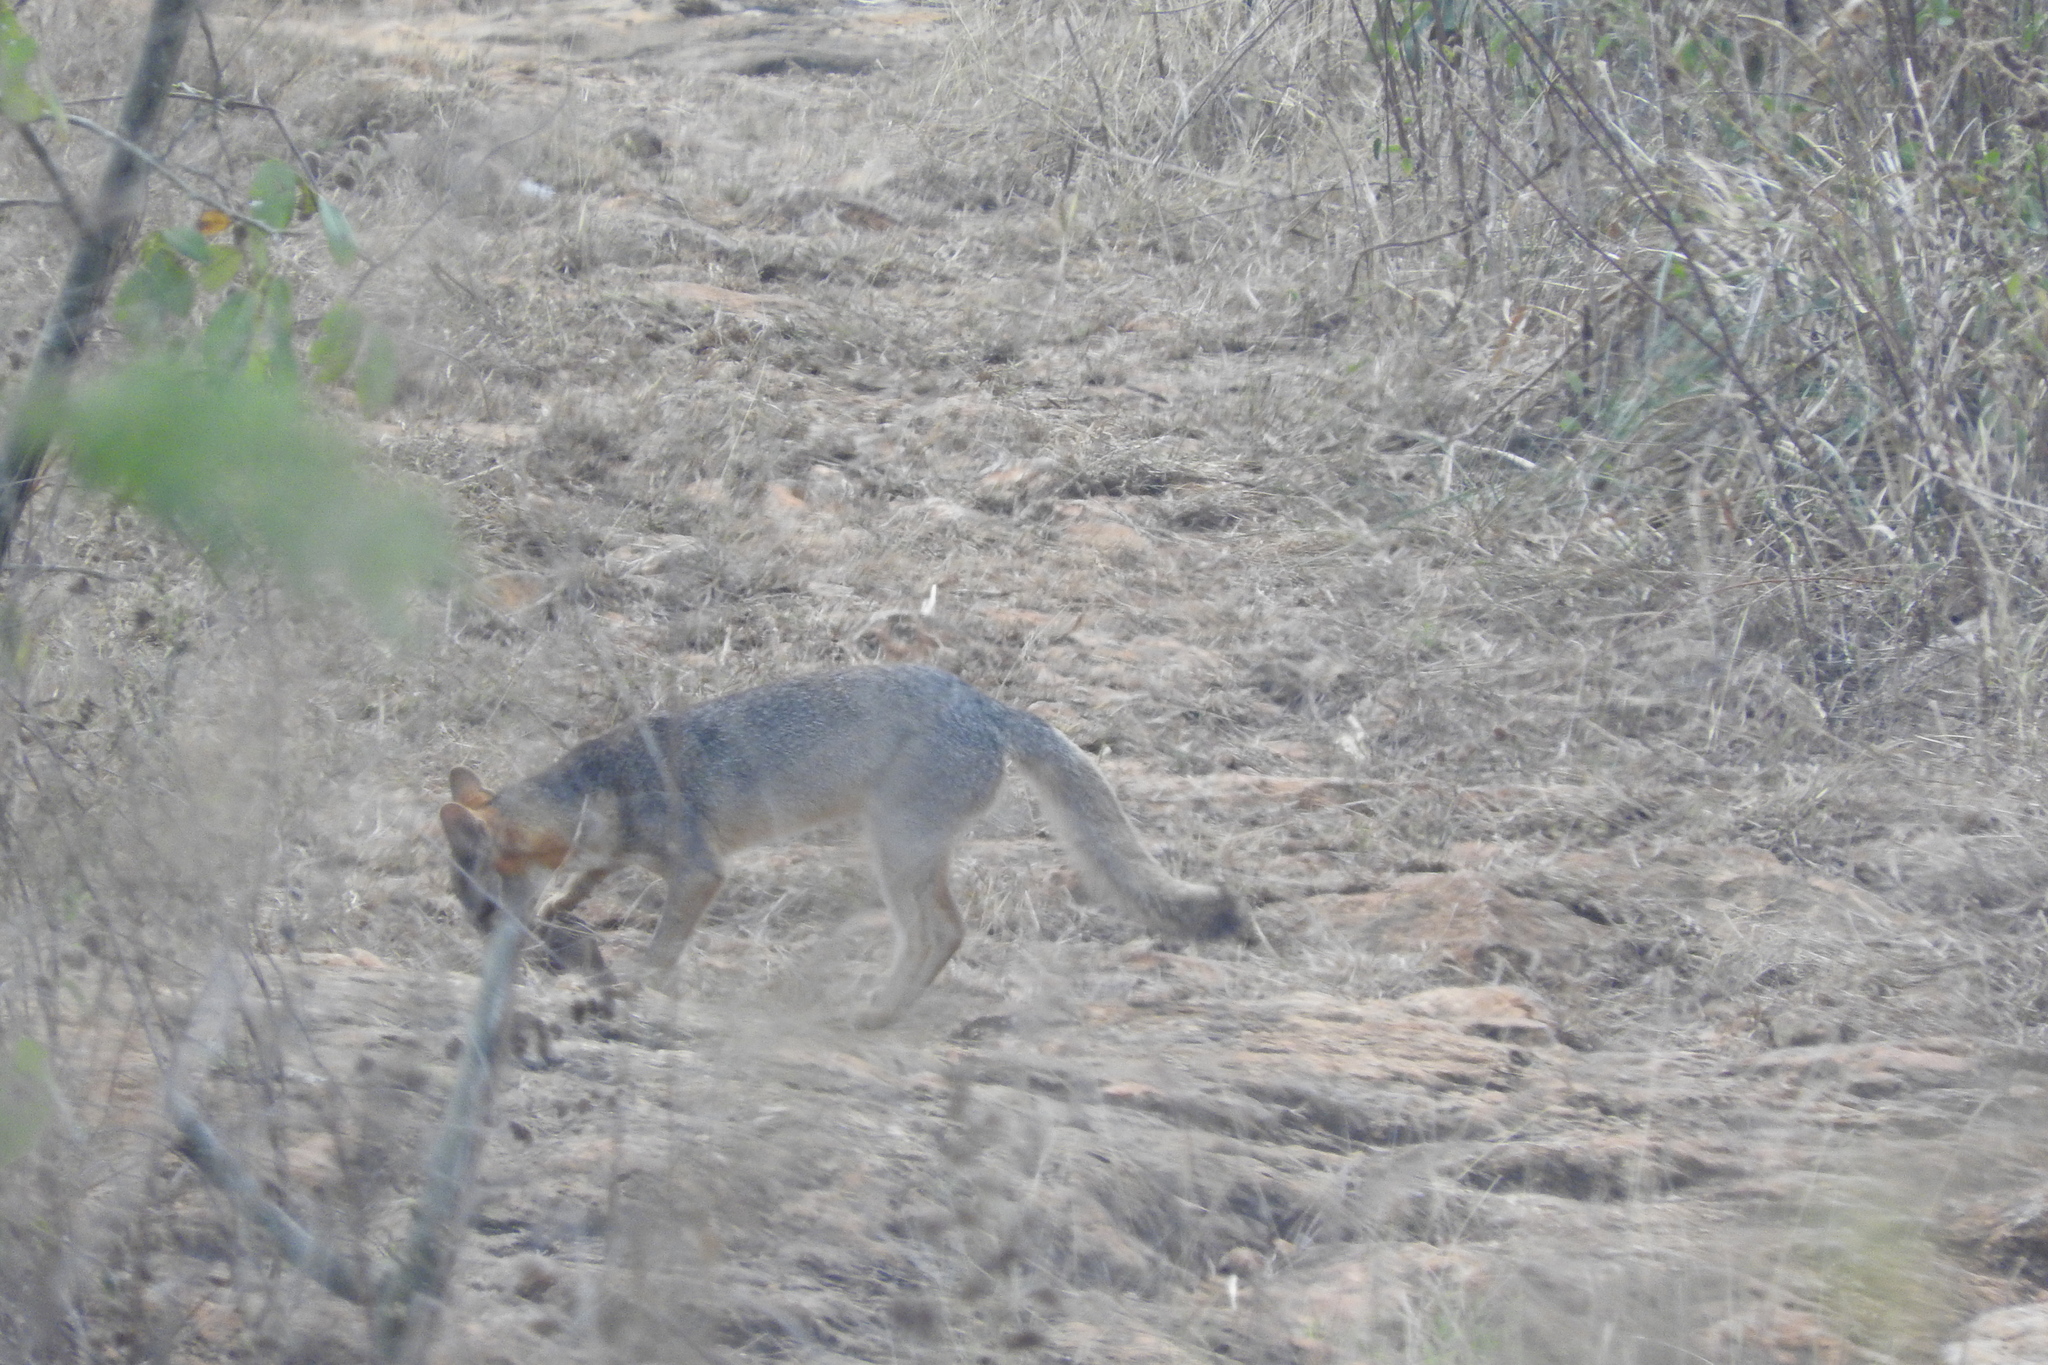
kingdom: Animalia
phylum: Chordata
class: Mammalia
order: Carnivora
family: Canidae
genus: Urocyon
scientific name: Urocyon cinereoargenteus
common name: Gray fox
